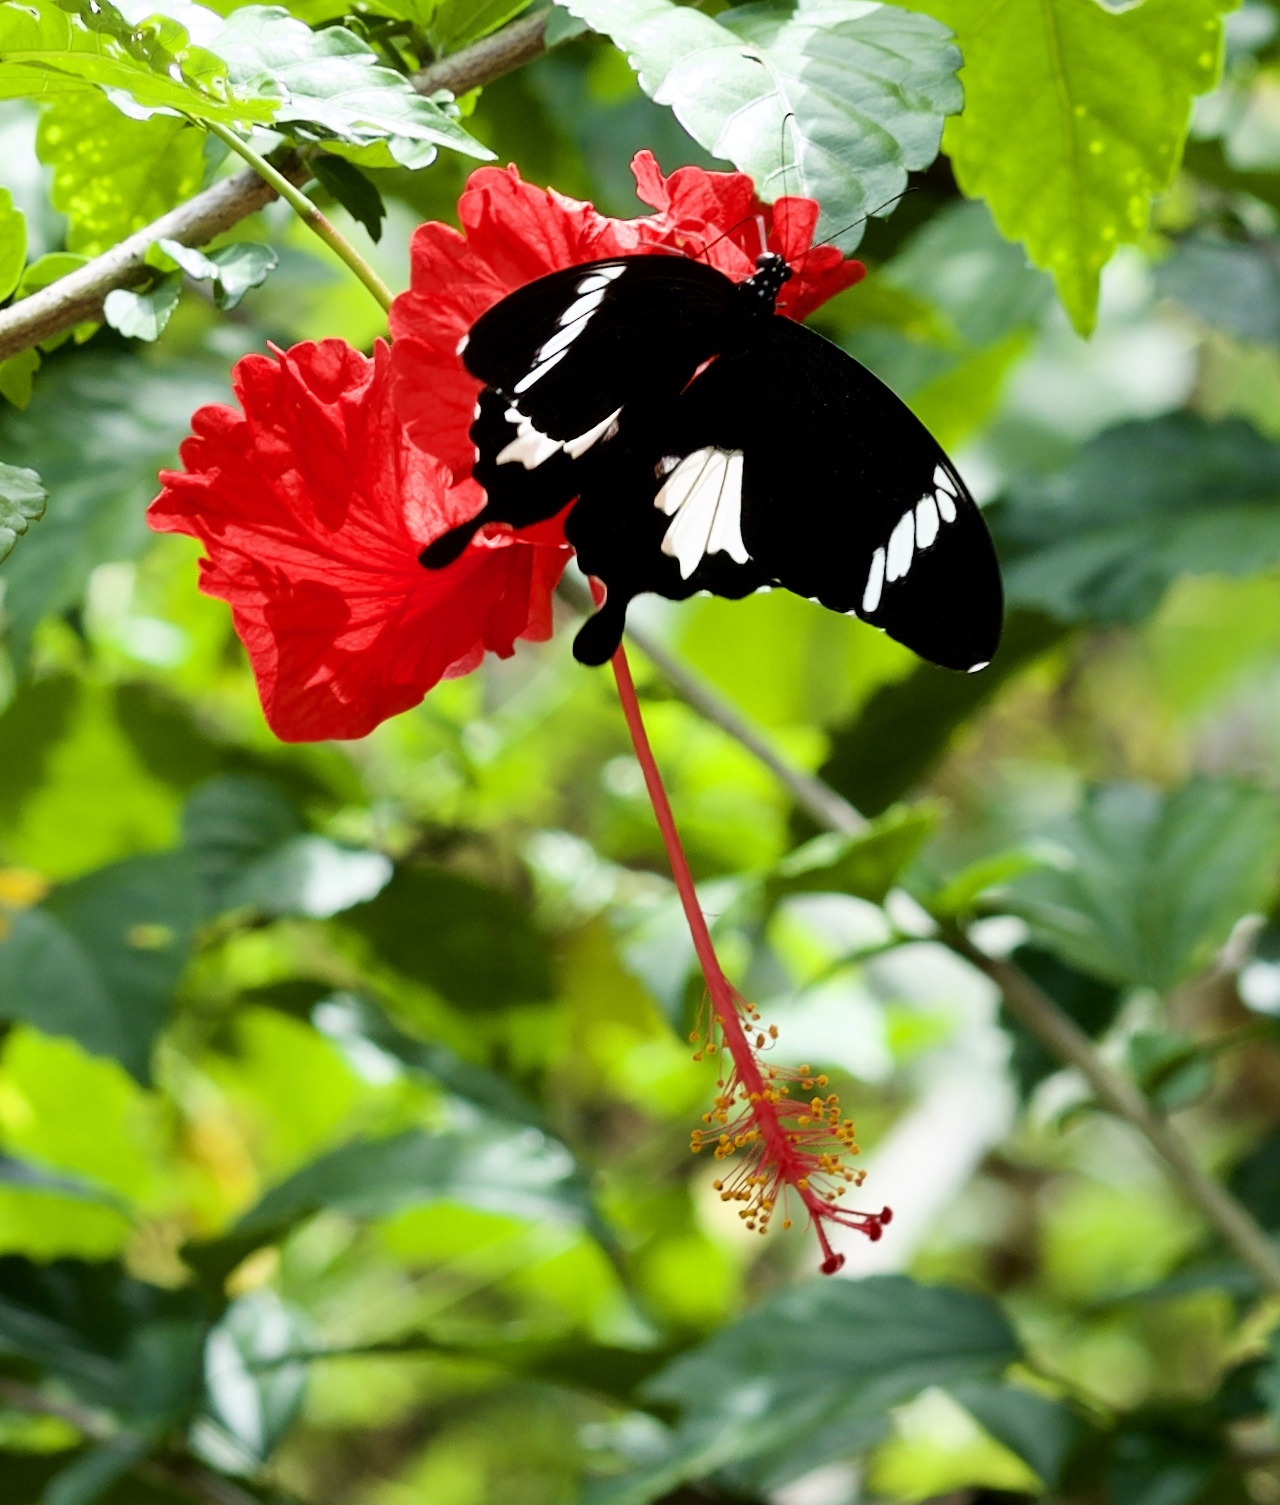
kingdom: Animalia
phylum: Arthropoda
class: Insecta
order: Lepidoptera
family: Papilionidae
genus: Papilio
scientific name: Papilio nephelus
